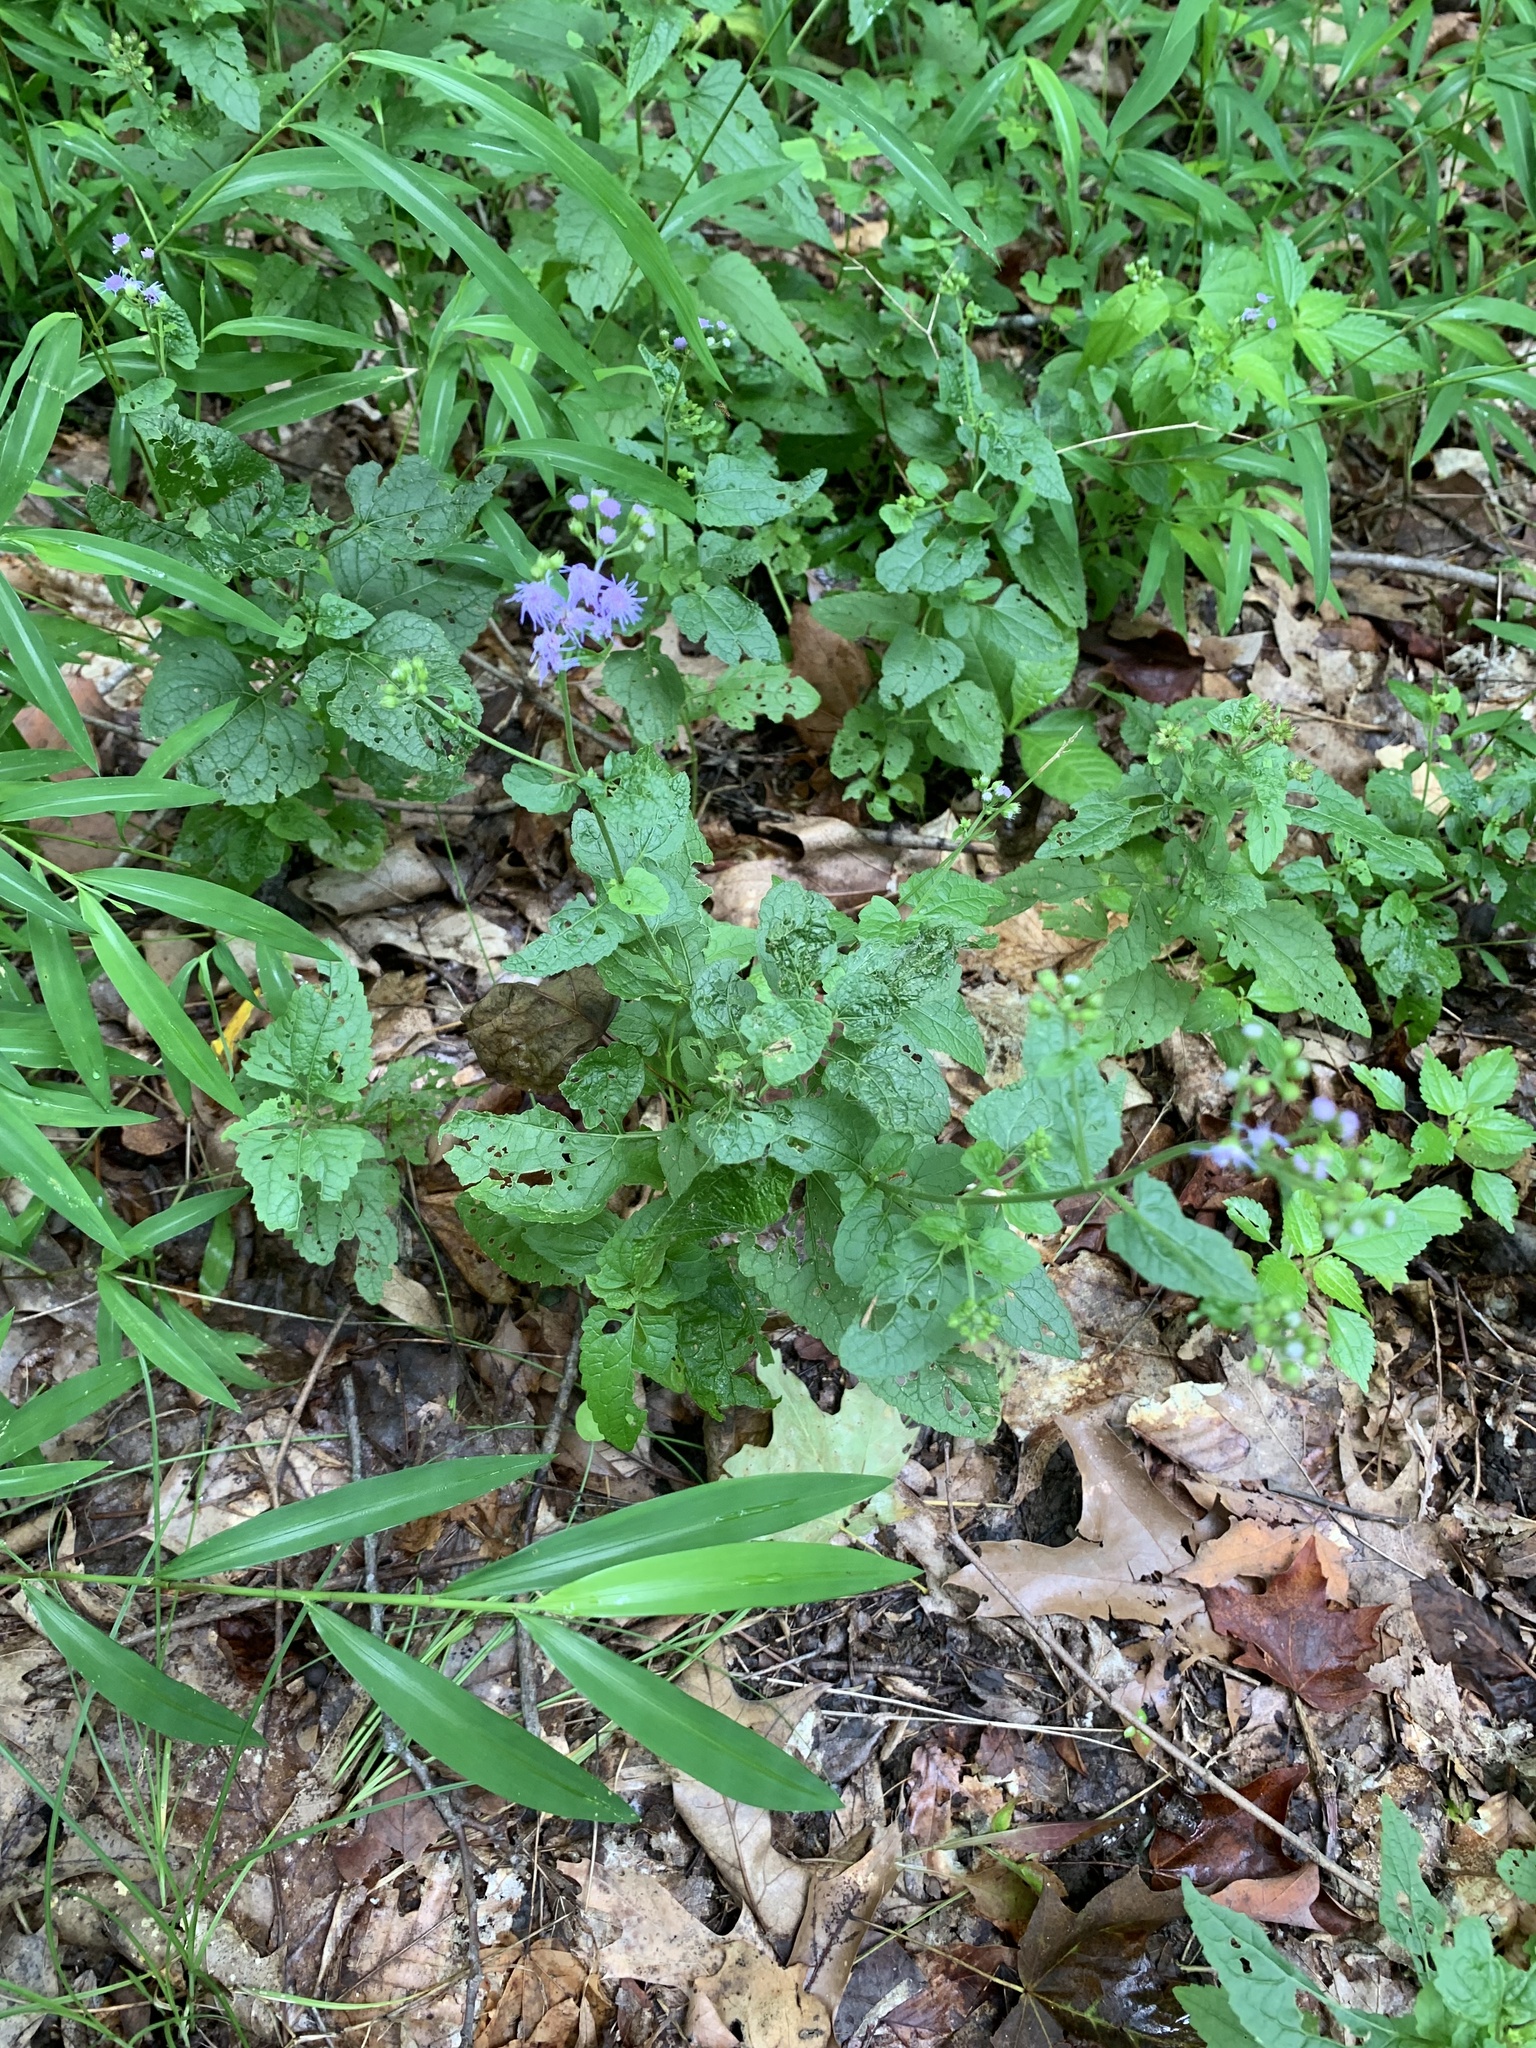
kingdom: Plantae
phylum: Tracheophyta
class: Magnoliopsida
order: Asterales
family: Asteraceae
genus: Conoclinium
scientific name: Conoclinium coelestinum
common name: Blue mistflower
